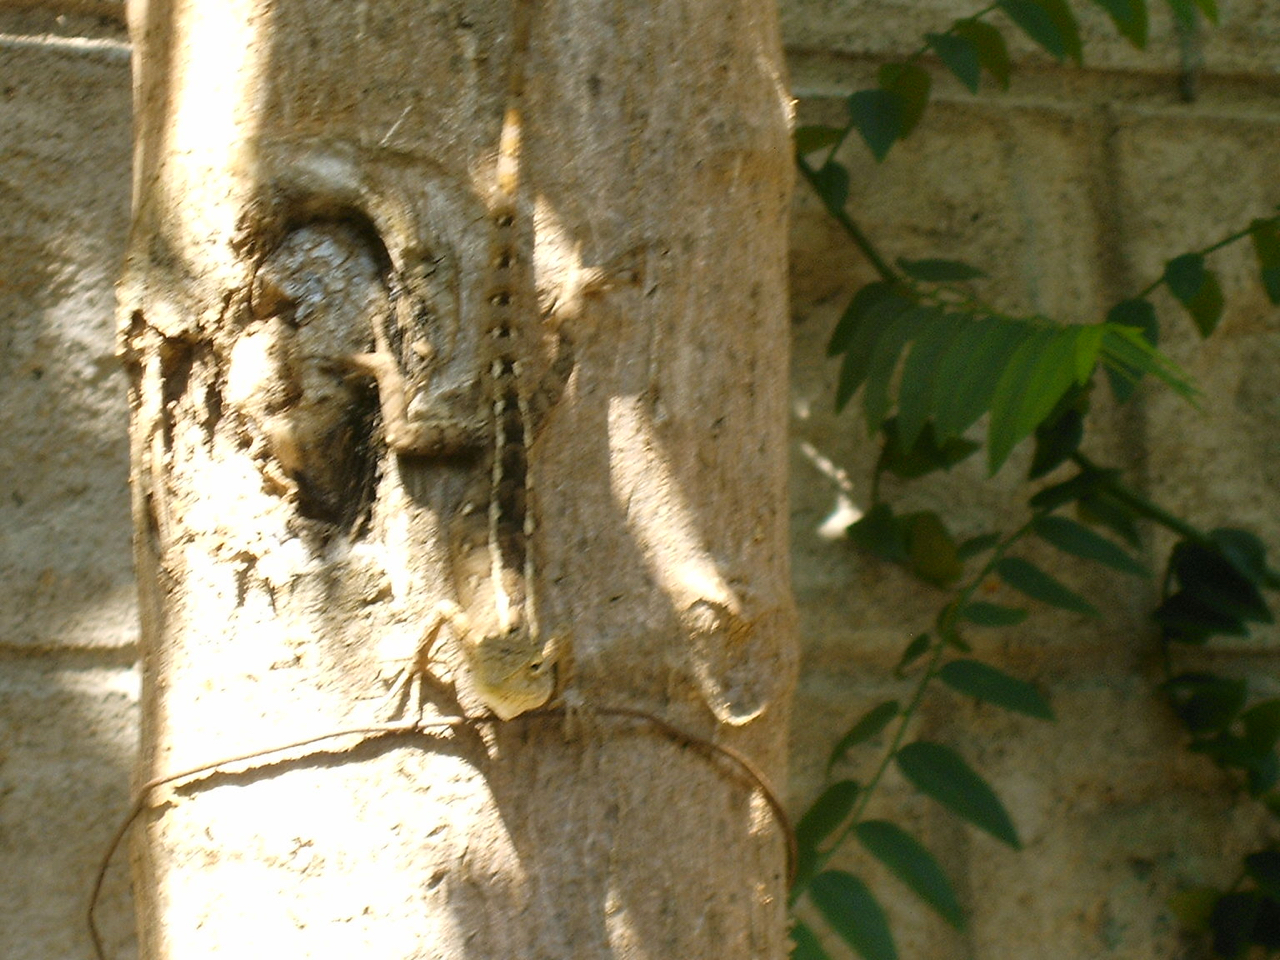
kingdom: Animalia
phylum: Chordata
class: Squamata
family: Agamidae
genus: Calotes
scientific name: Calotes versicolor
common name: Oriental garden lizard
